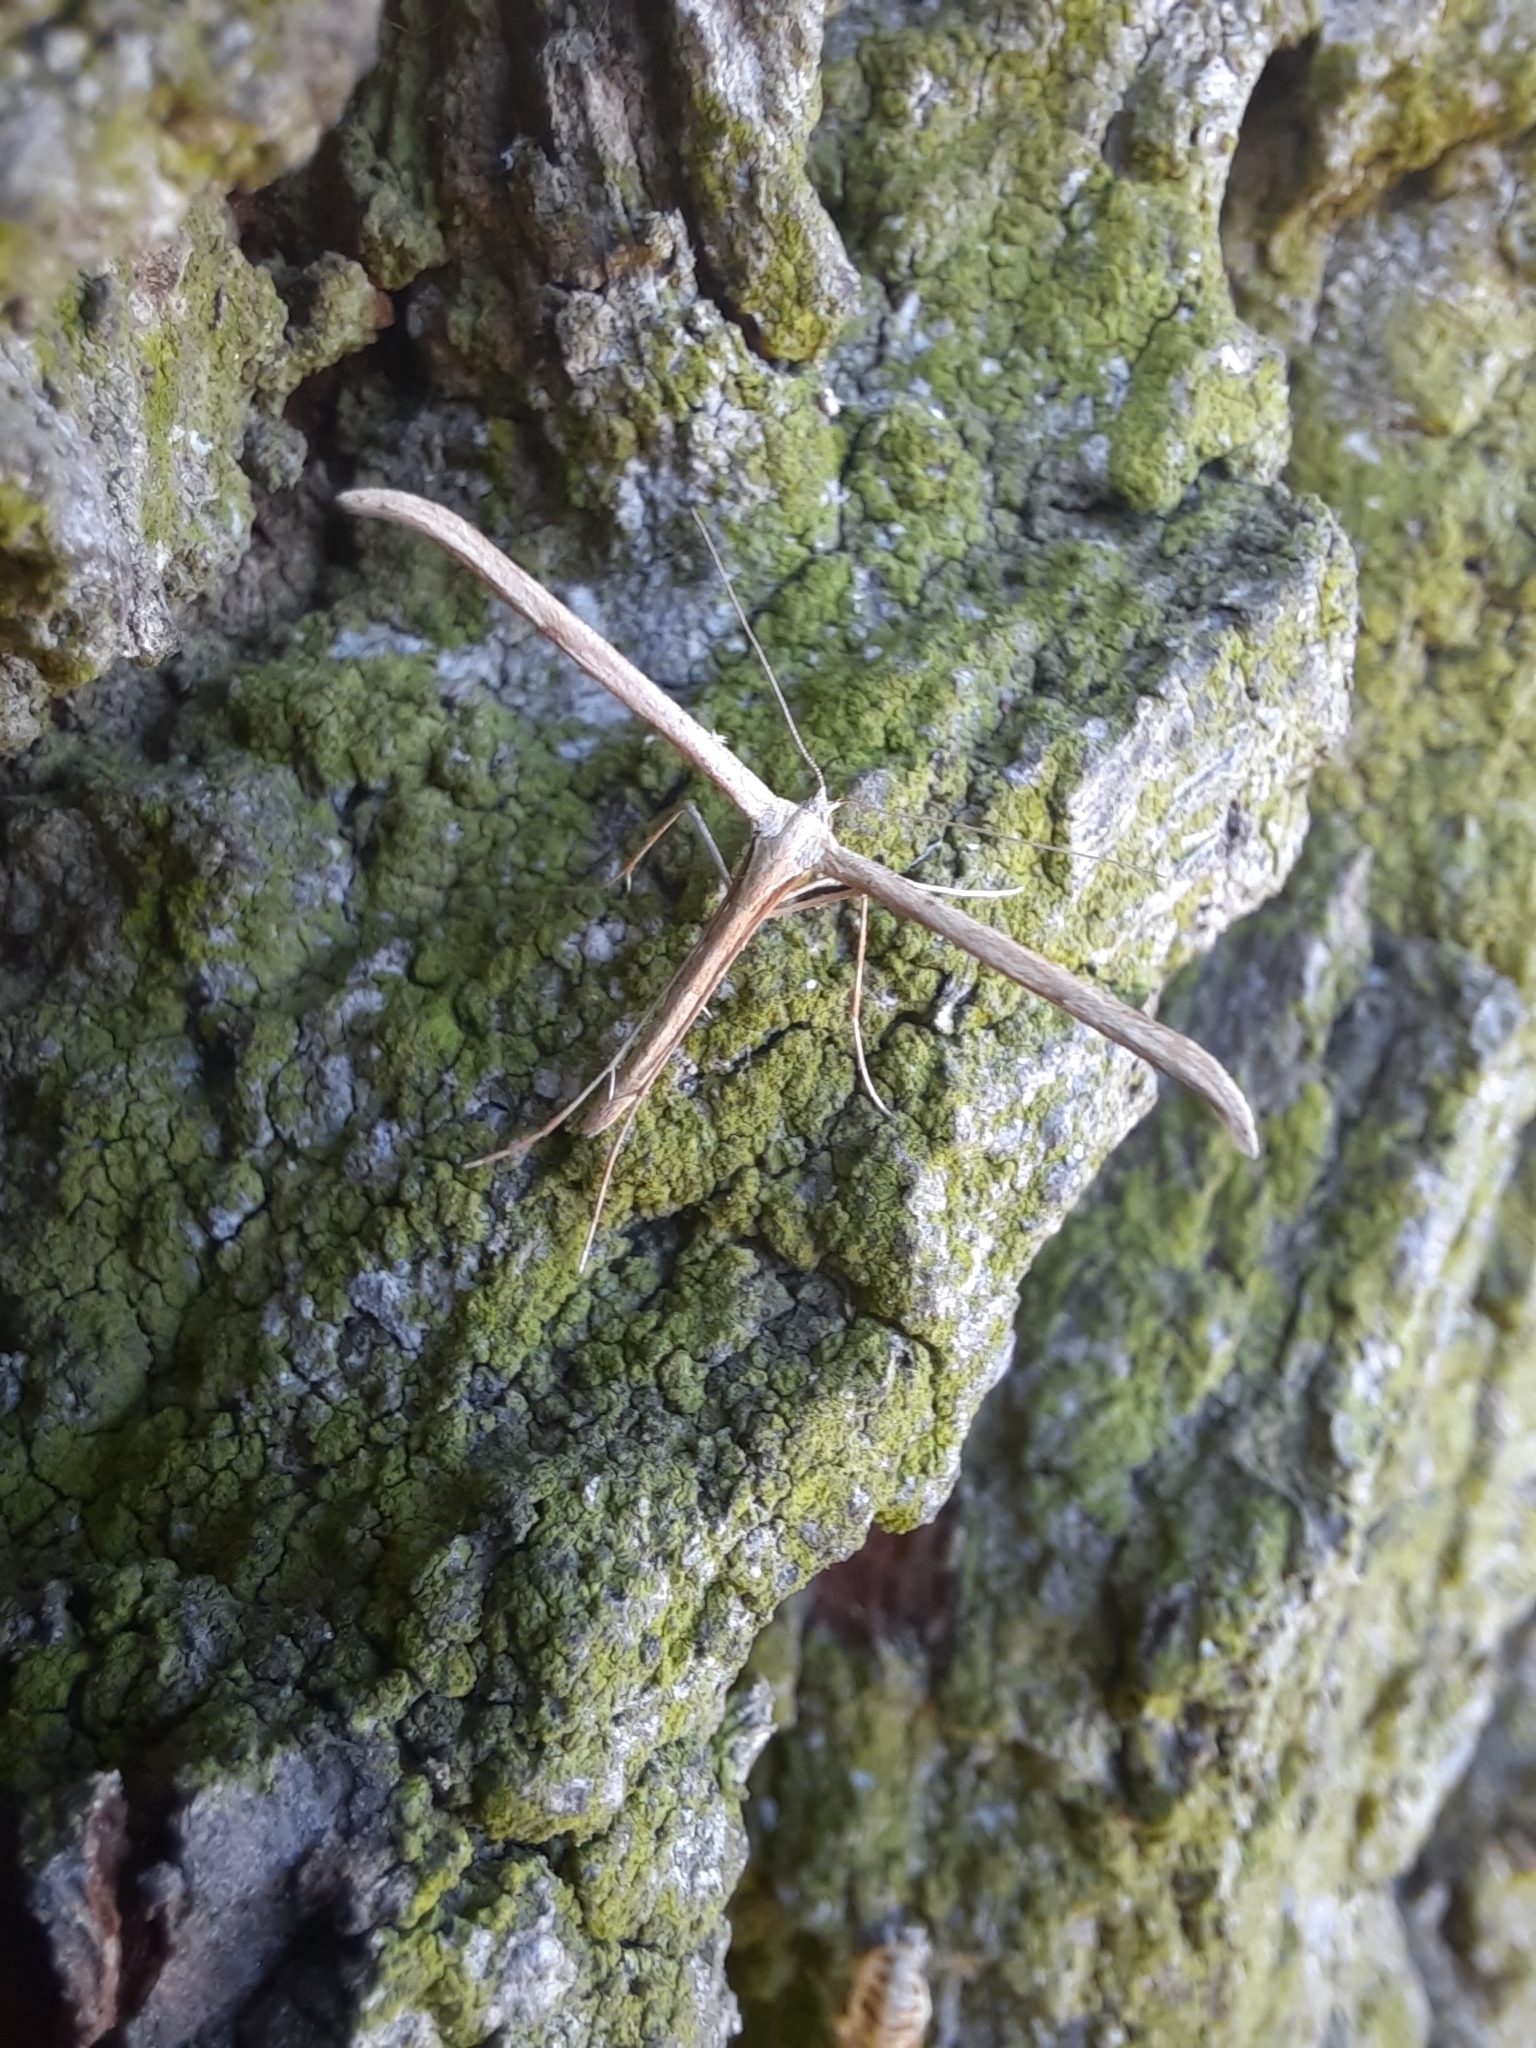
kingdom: Animalia
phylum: Arthropoda
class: Insecta
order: Lepidoptera
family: Pterophoridae
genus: Emmelina
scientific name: Emmelina monodactyla
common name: Common plume
